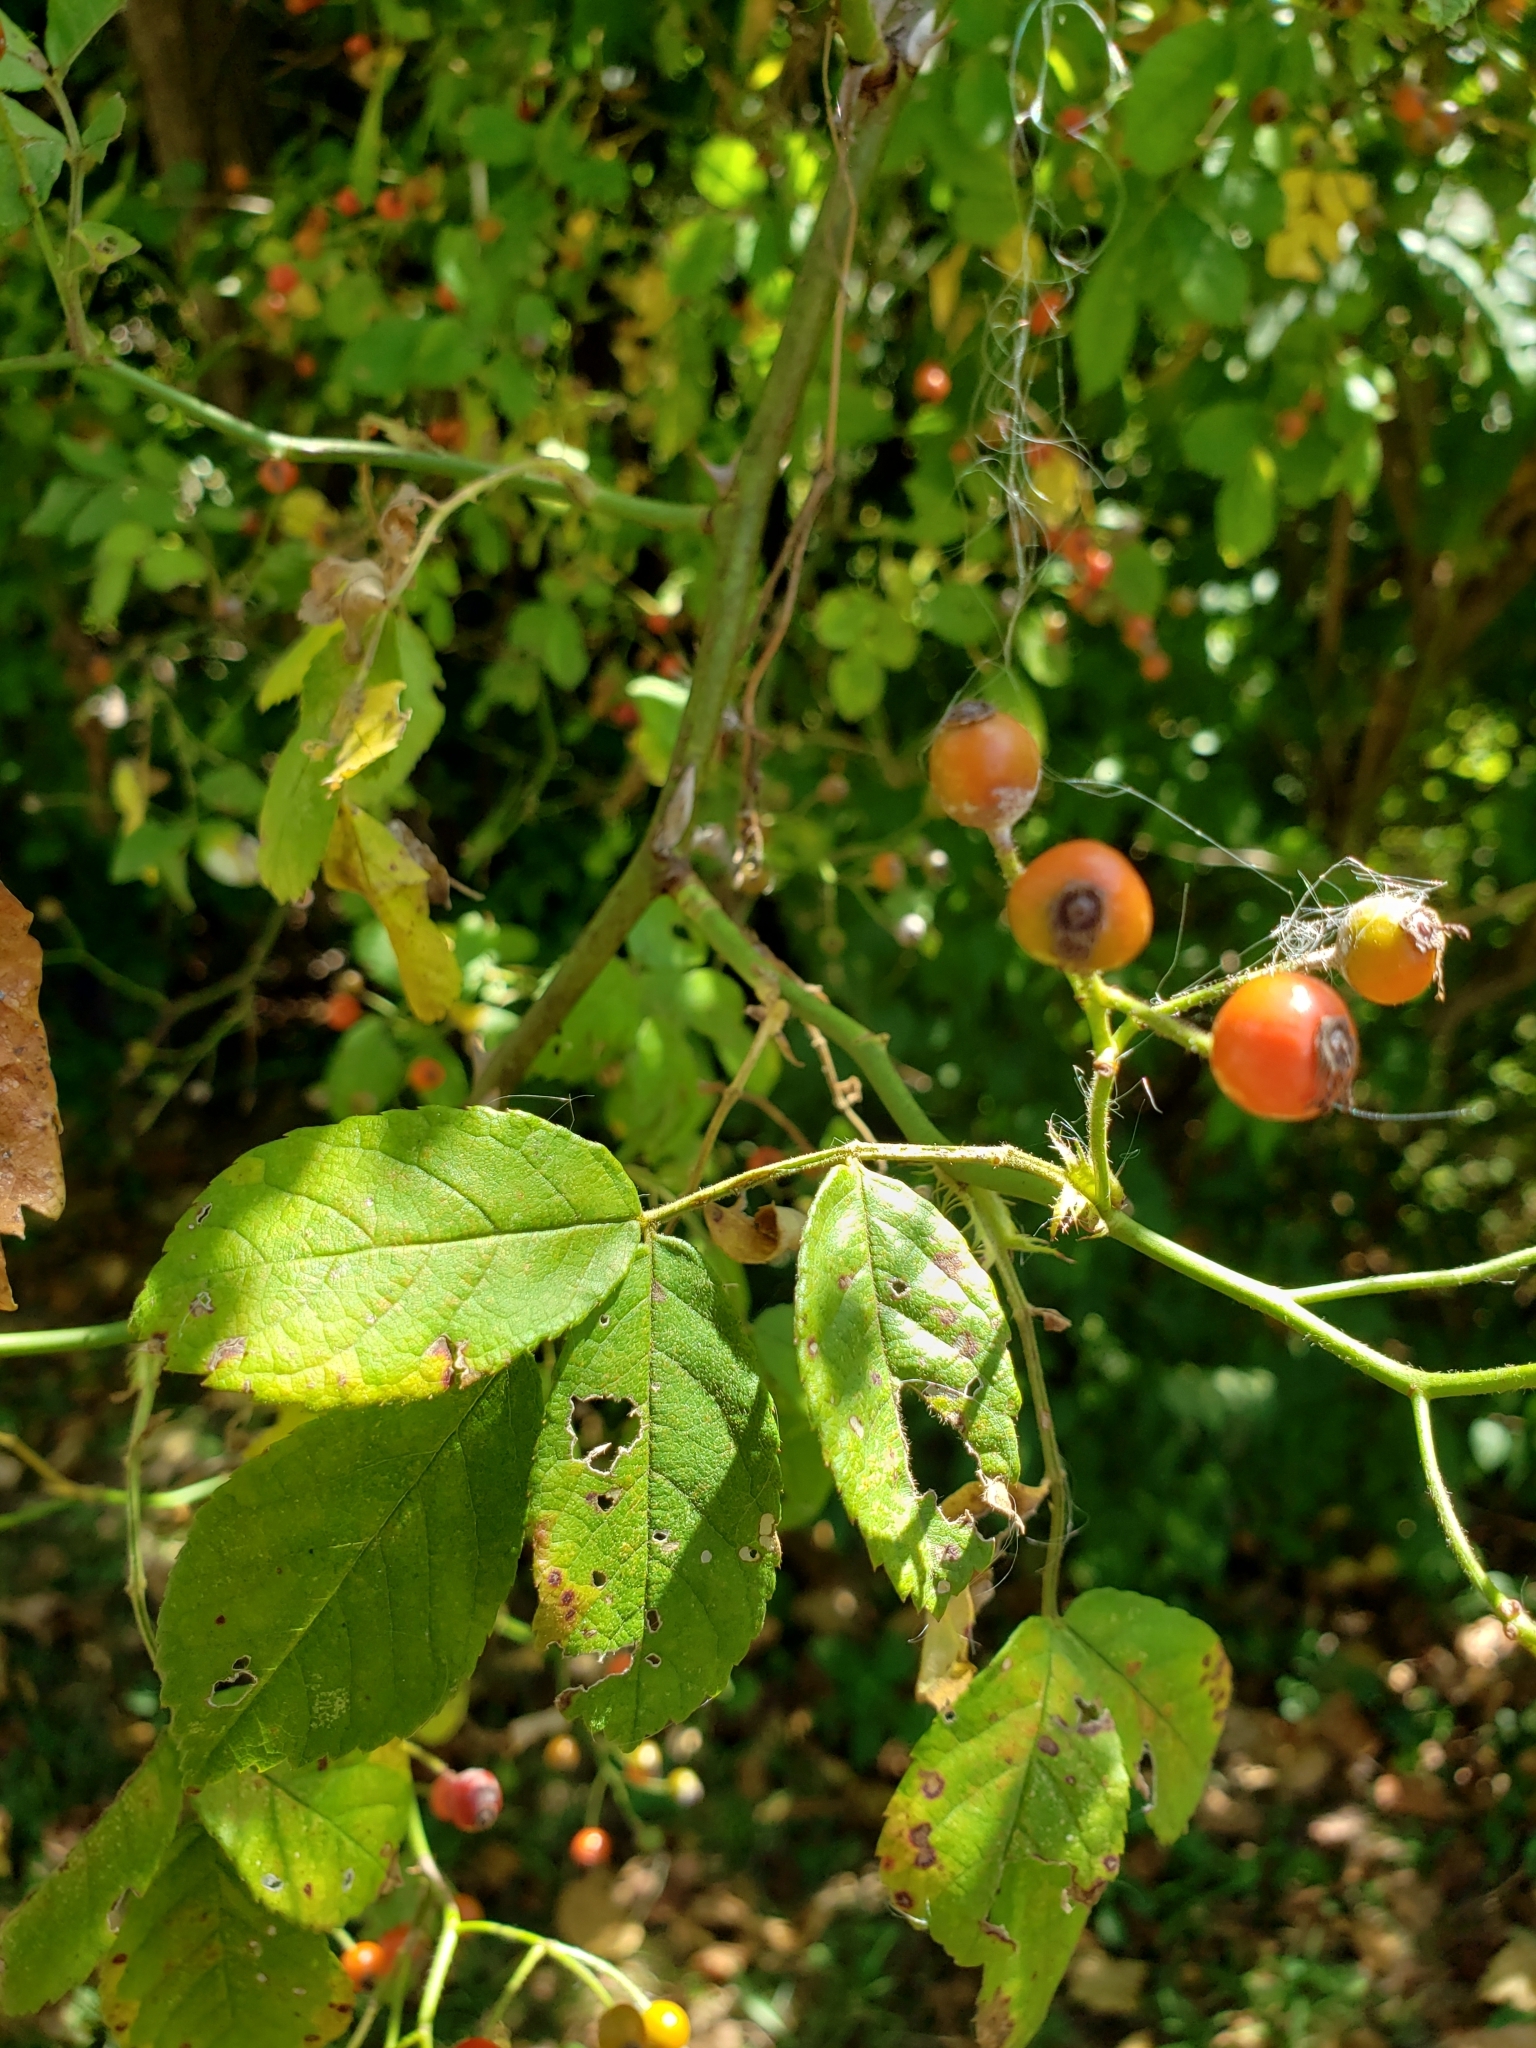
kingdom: Plantae
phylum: Tracheophyta
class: Magnoliopsida
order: Rosales
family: Rosaceae
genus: Rosa
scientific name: Rosa multiflora
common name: Multiflora rose
